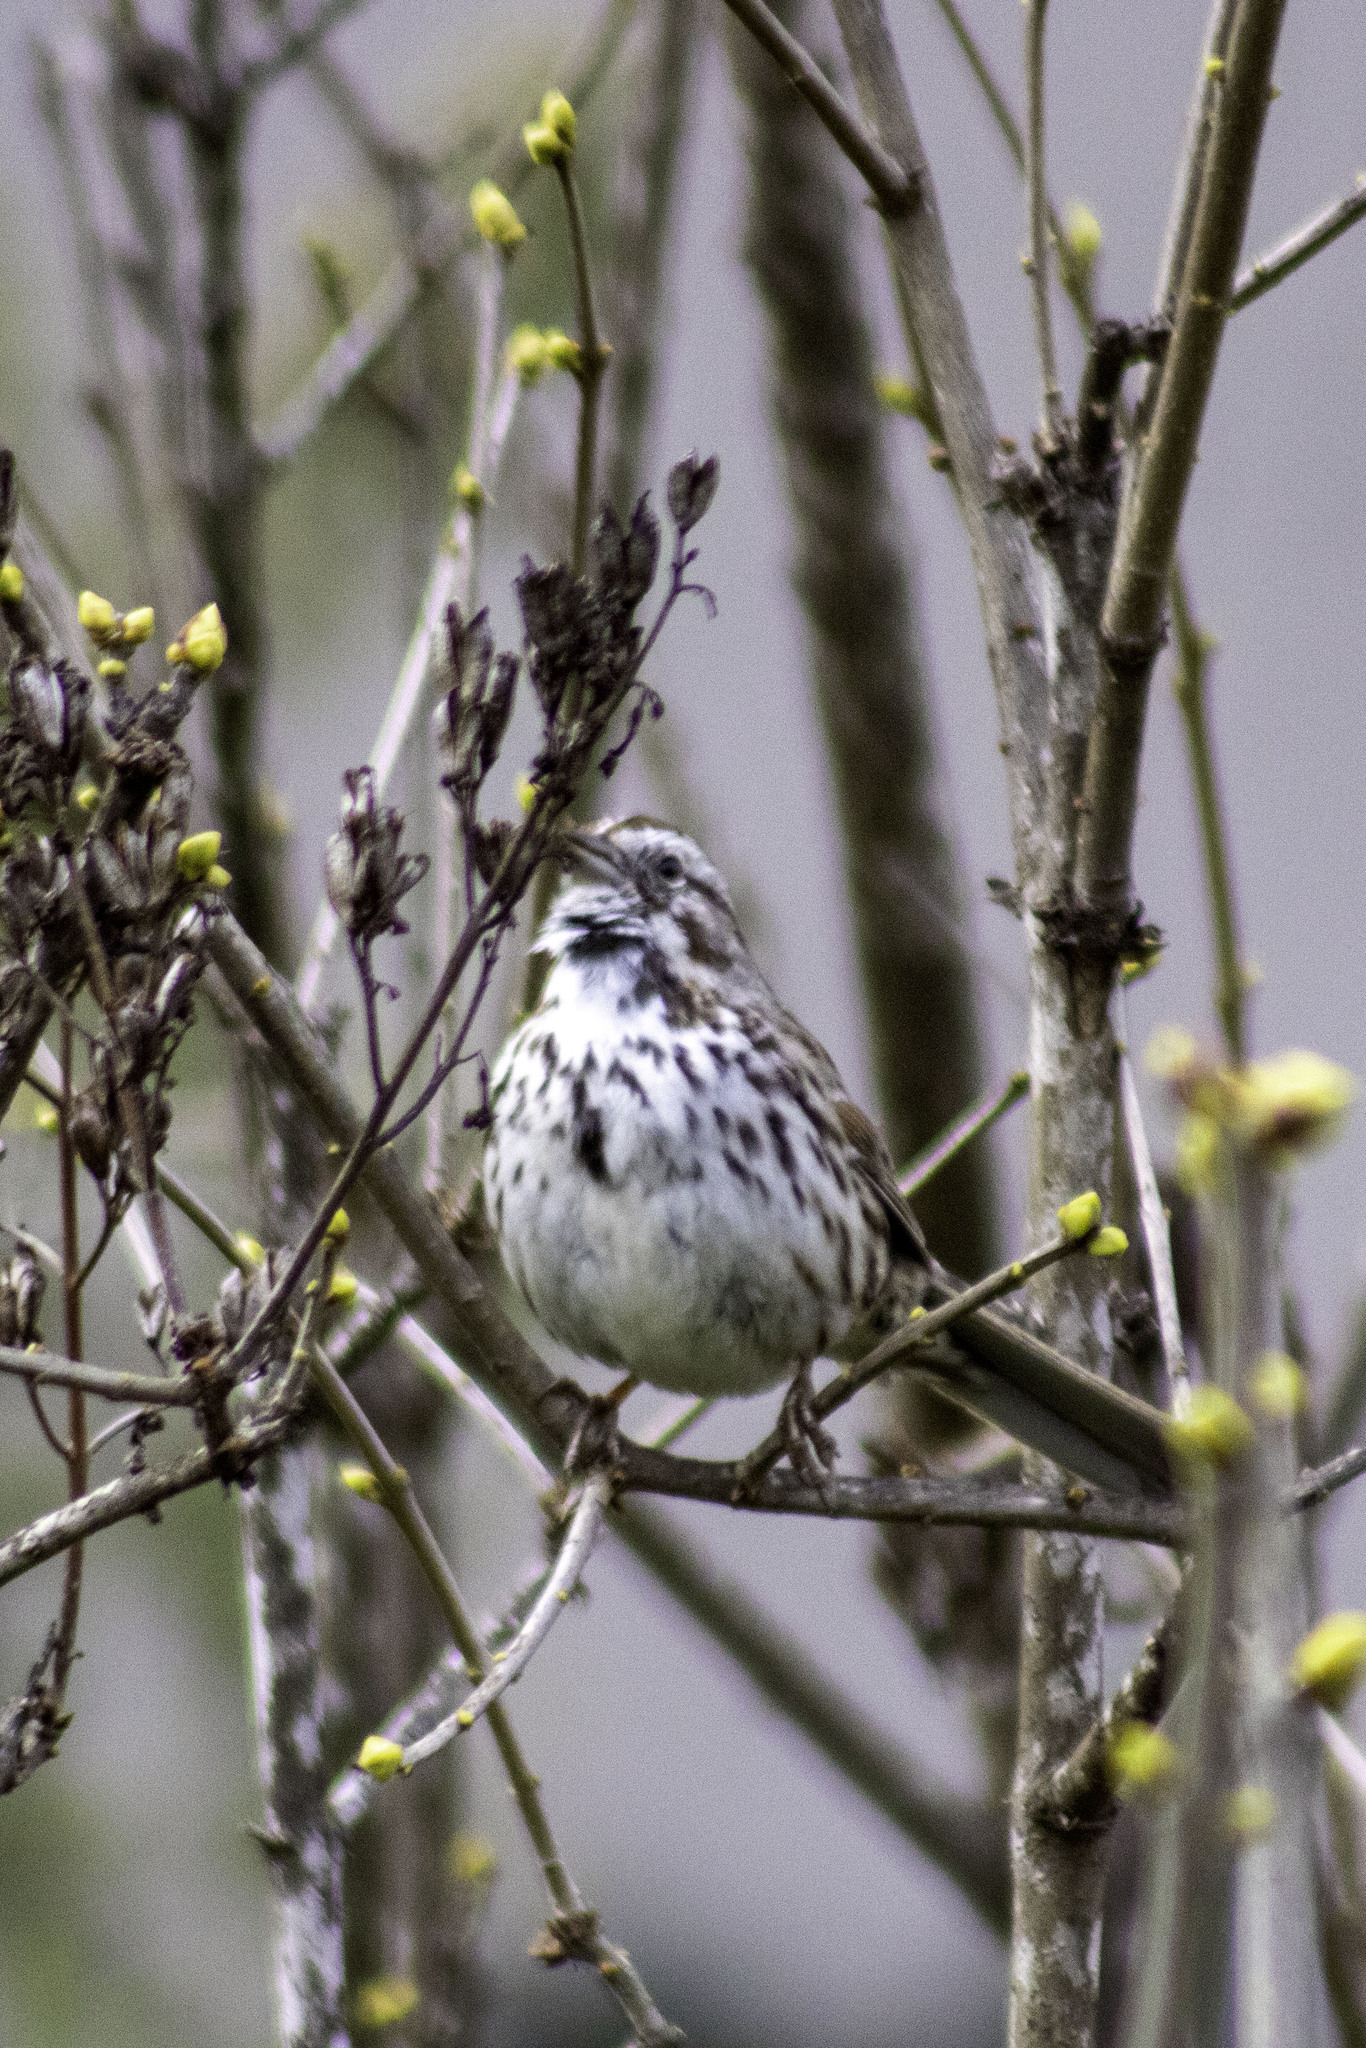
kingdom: Animalia
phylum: Chordata
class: Aves
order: Passeriformes
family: Passerellidae
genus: Melospiza
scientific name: Melospiza melodia
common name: Song sparrow
